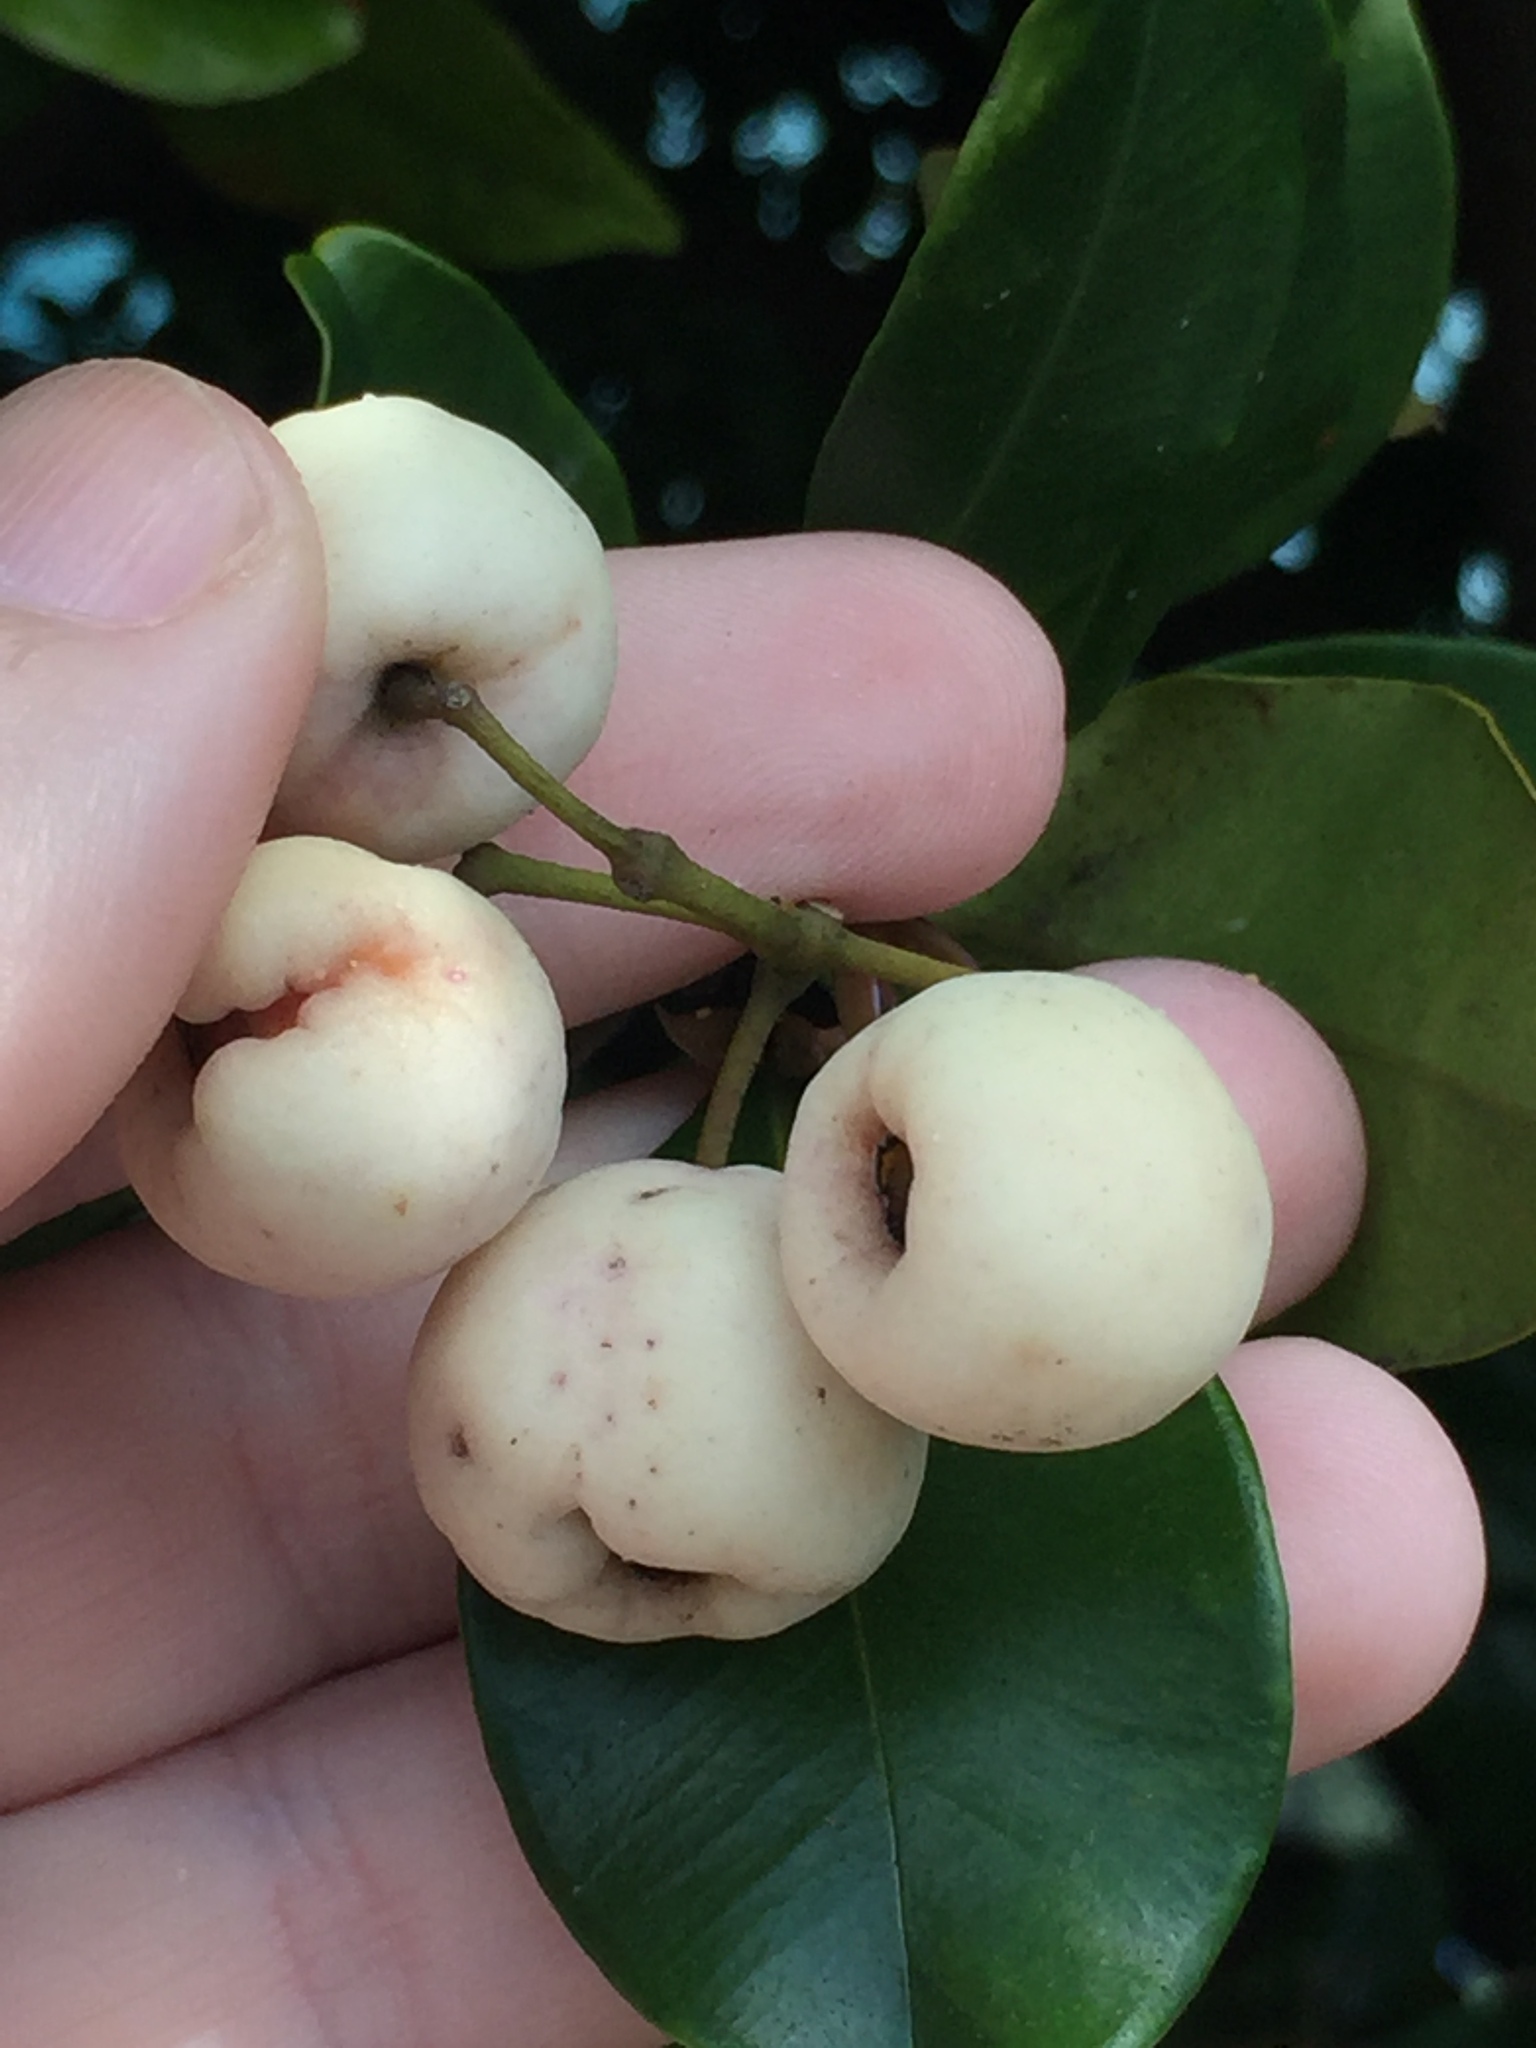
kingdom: Plantae
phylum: Tracheophyta
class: Magnoliopsida
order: Myrtales
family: Myrtaceae
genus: Syzygium
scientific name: Syzygium smithii
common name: Lilly-pilly
